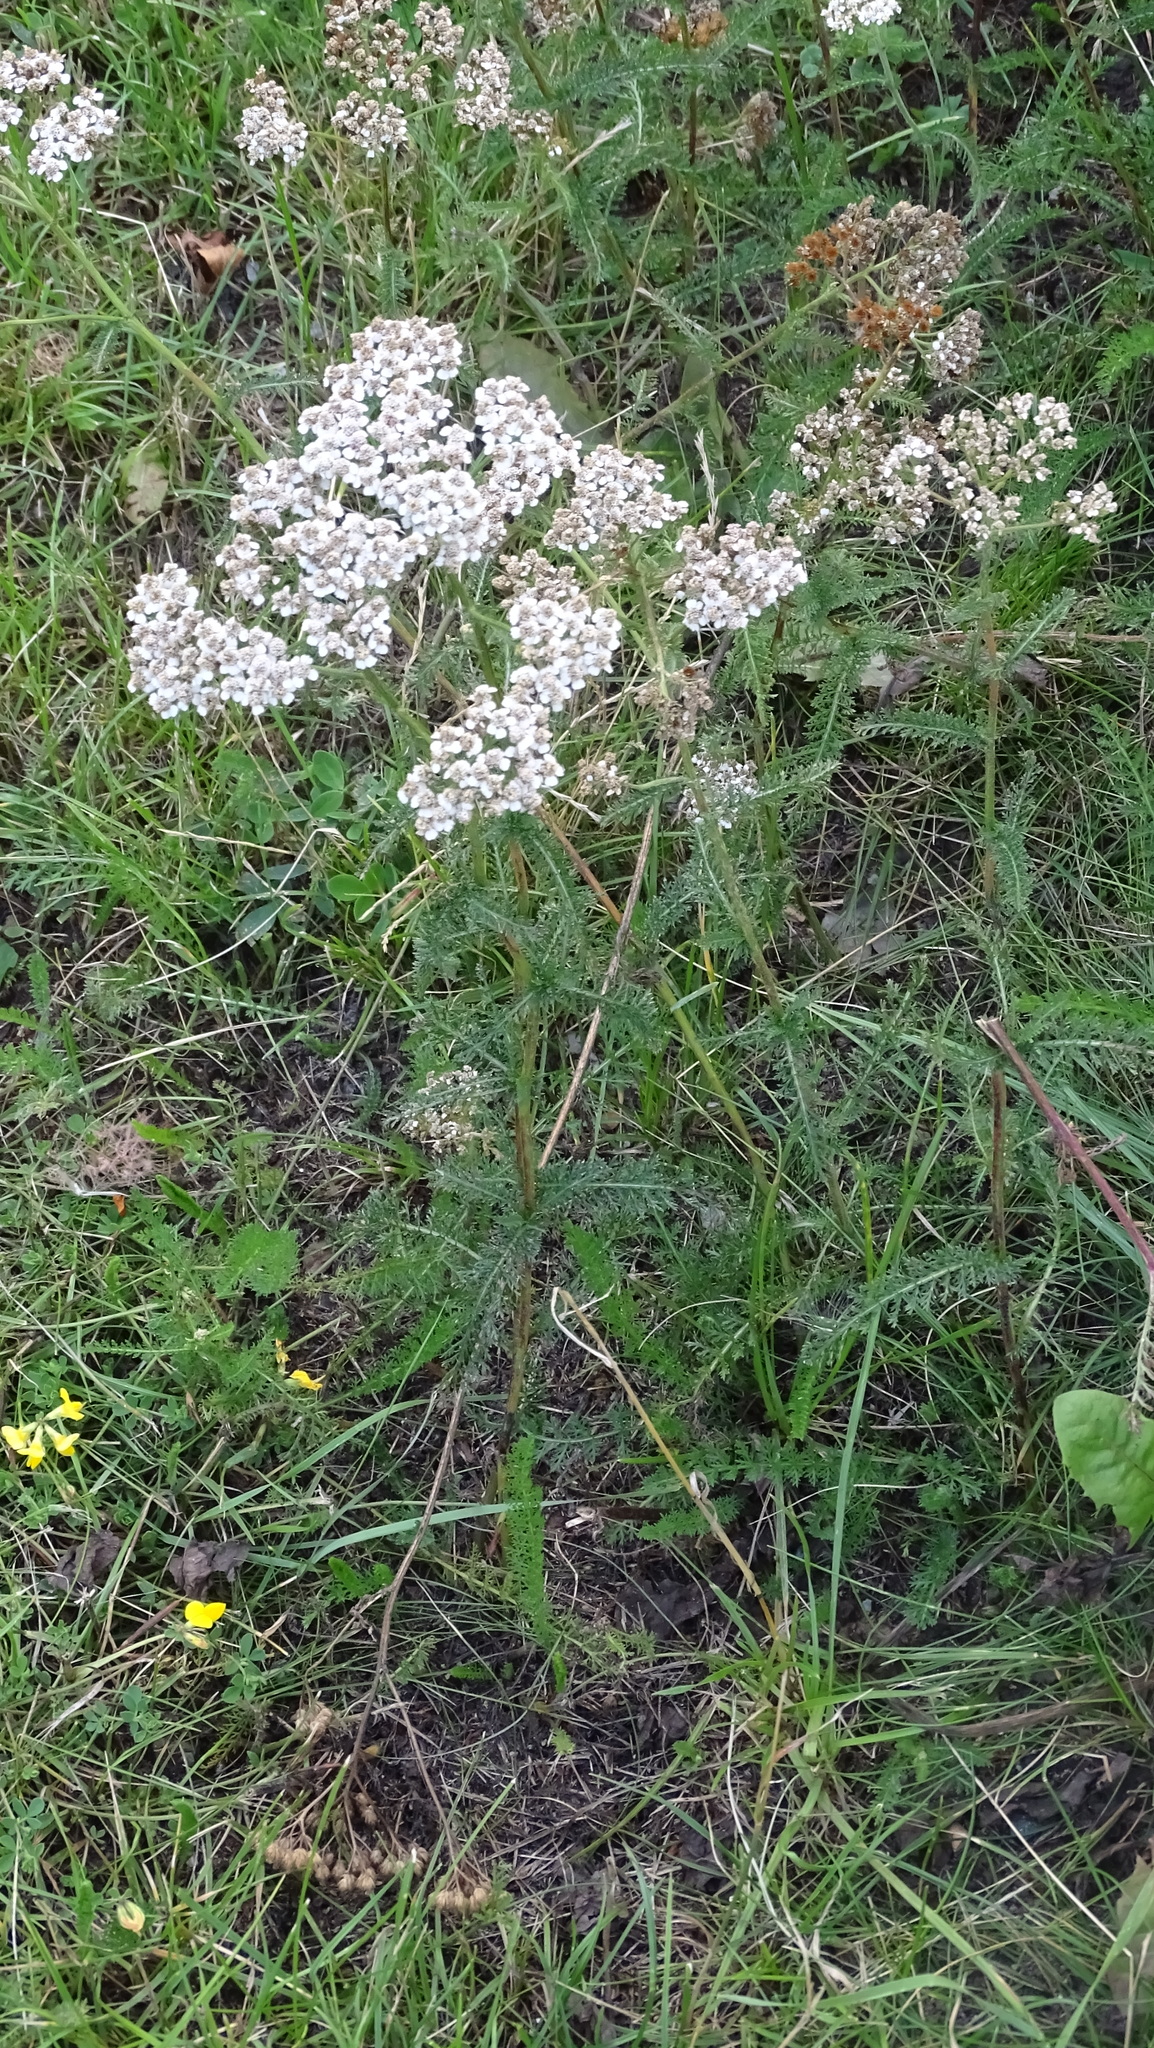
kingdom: Plantae
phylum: Tracheophyta
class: Magnoliopsida
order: Asterales
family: Asteraceae
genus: Achillea
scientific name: Achillea millefolium
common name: Yarrow
